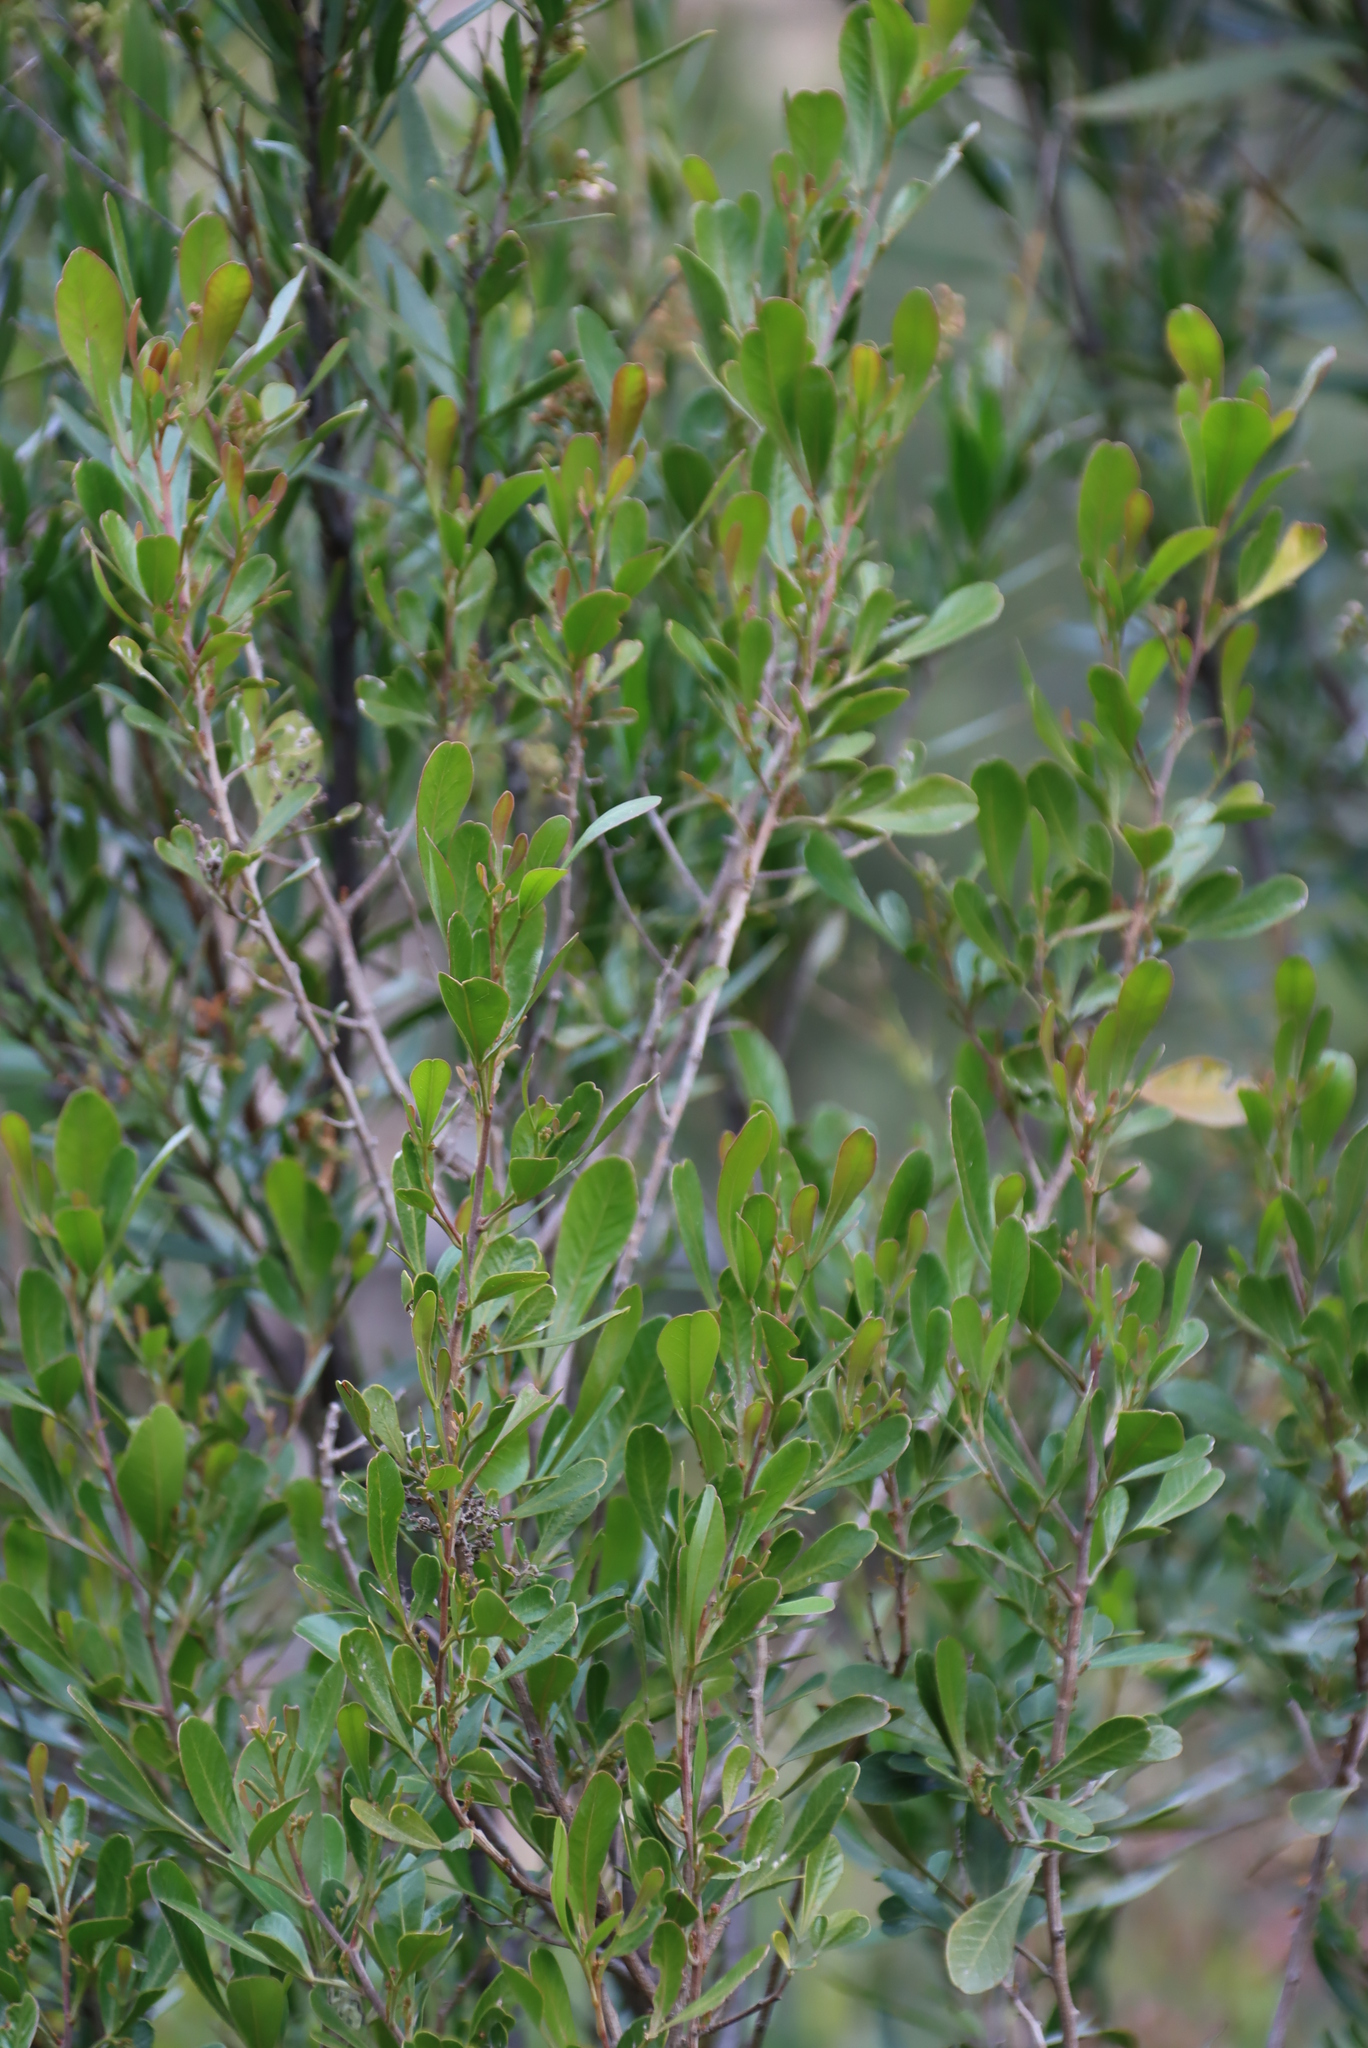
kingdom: Plantae
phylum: Tracheophyta
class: Magnoliopsida
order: Sapindales
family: Anacardiaceae
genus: Searsia
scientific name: Searsia lucida
